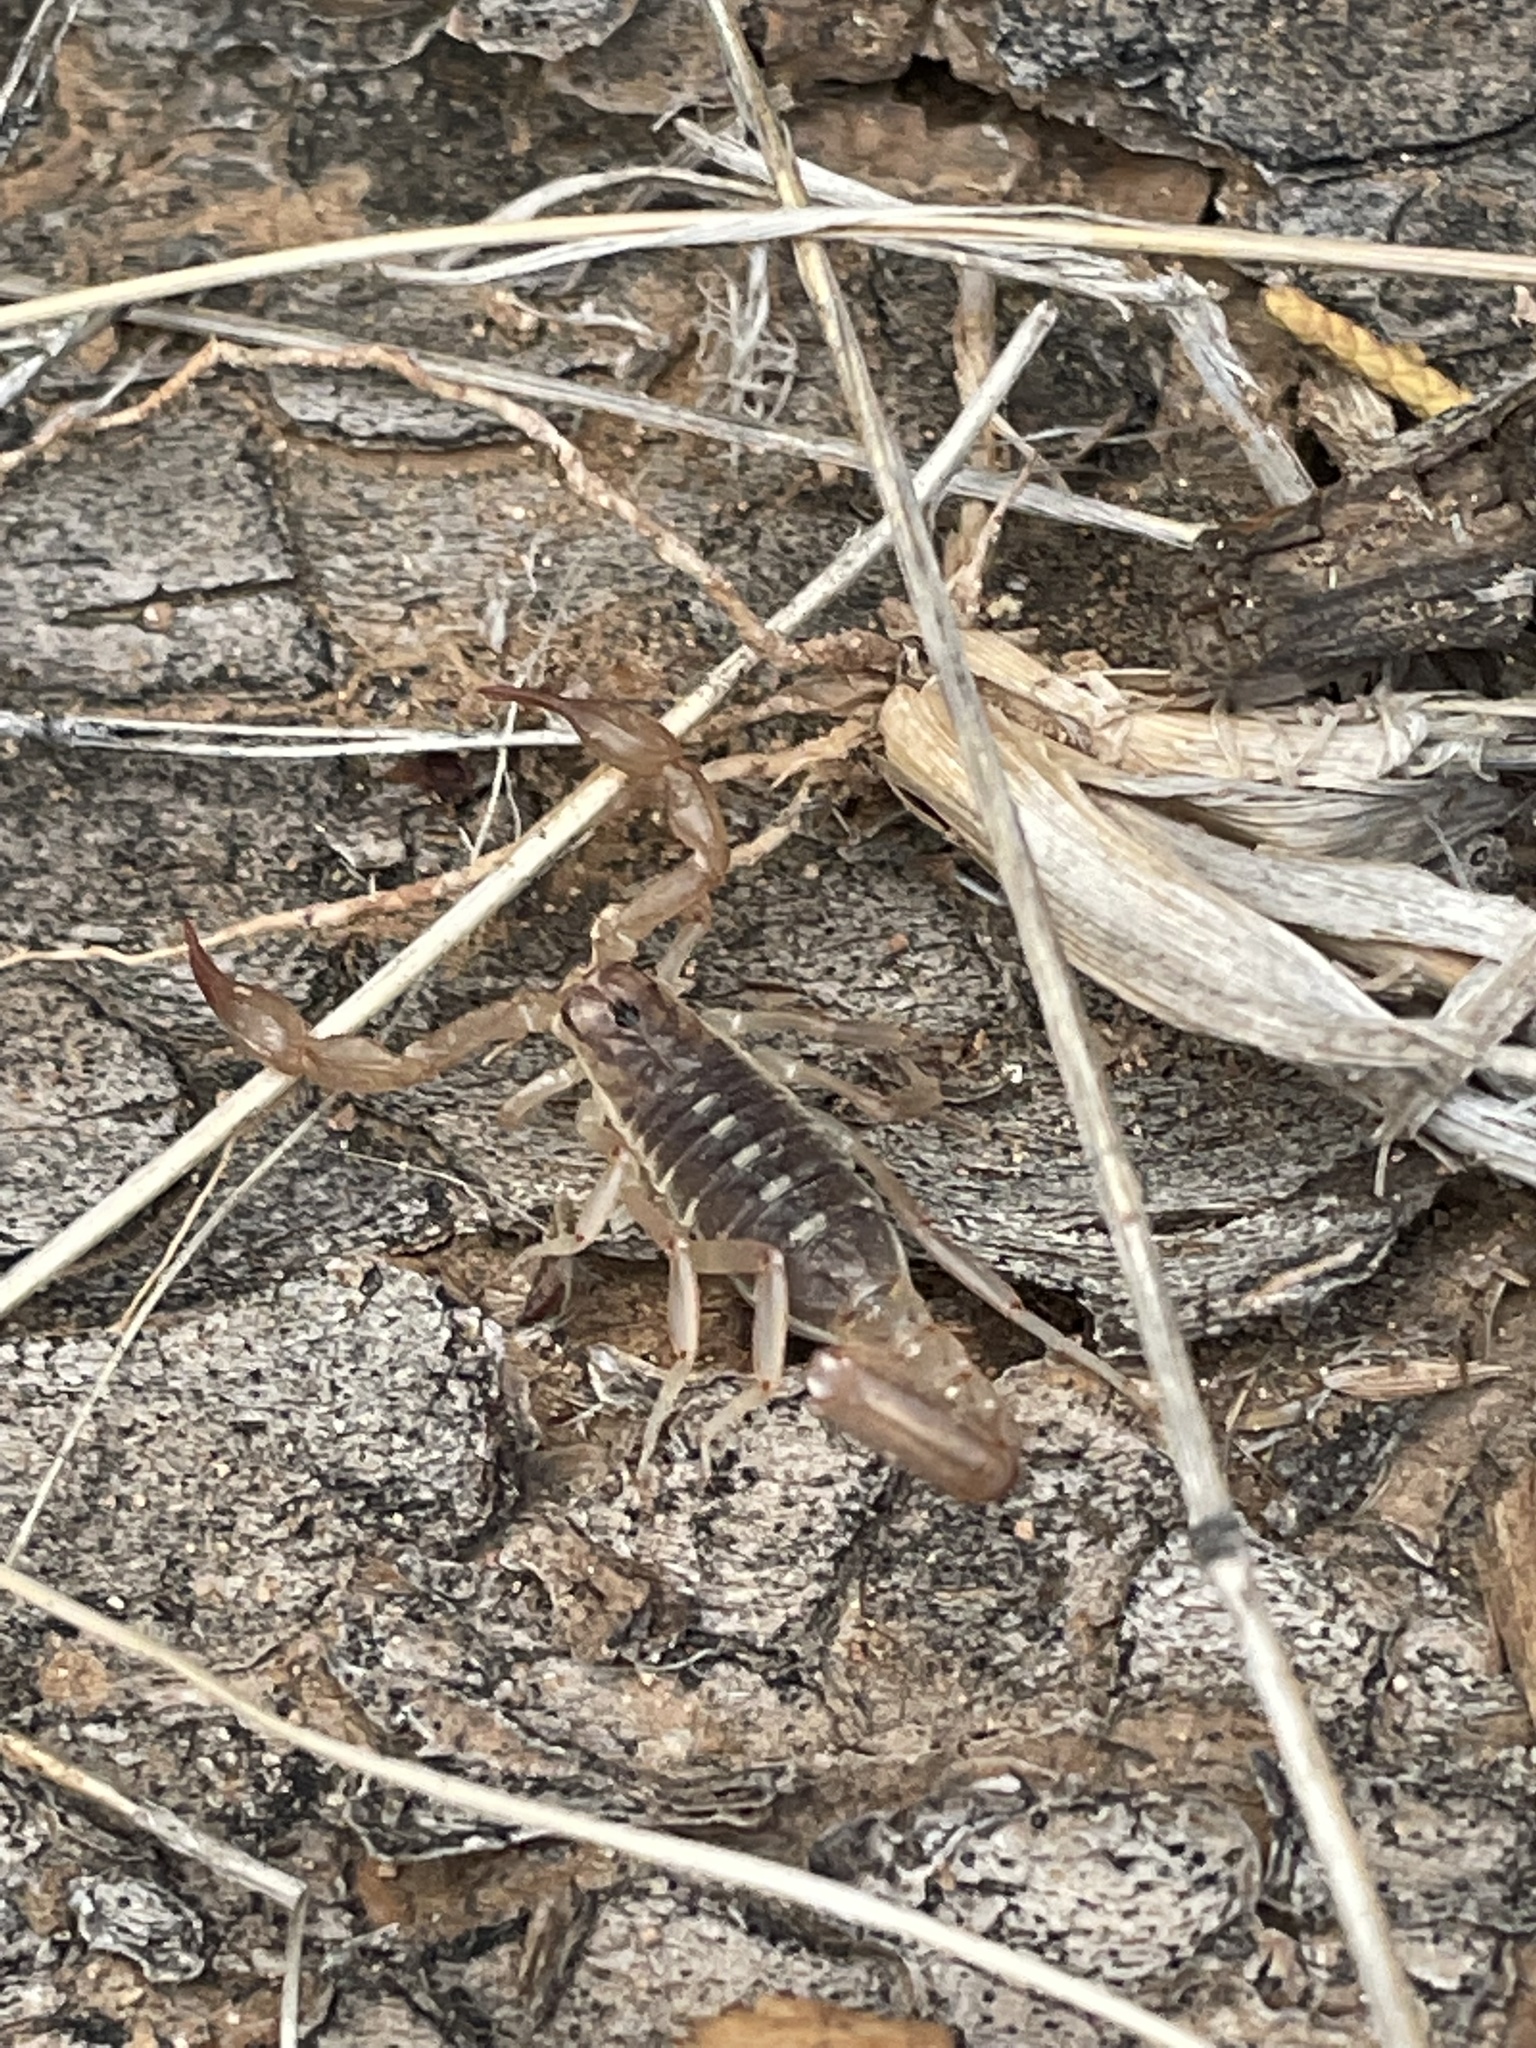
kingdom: Animalia
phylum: Arthropoda
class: Arachnida
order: Scorpiones
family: Vaejovidae
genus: Chihuahuanus
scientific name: Chihuahuanus coahuilae
